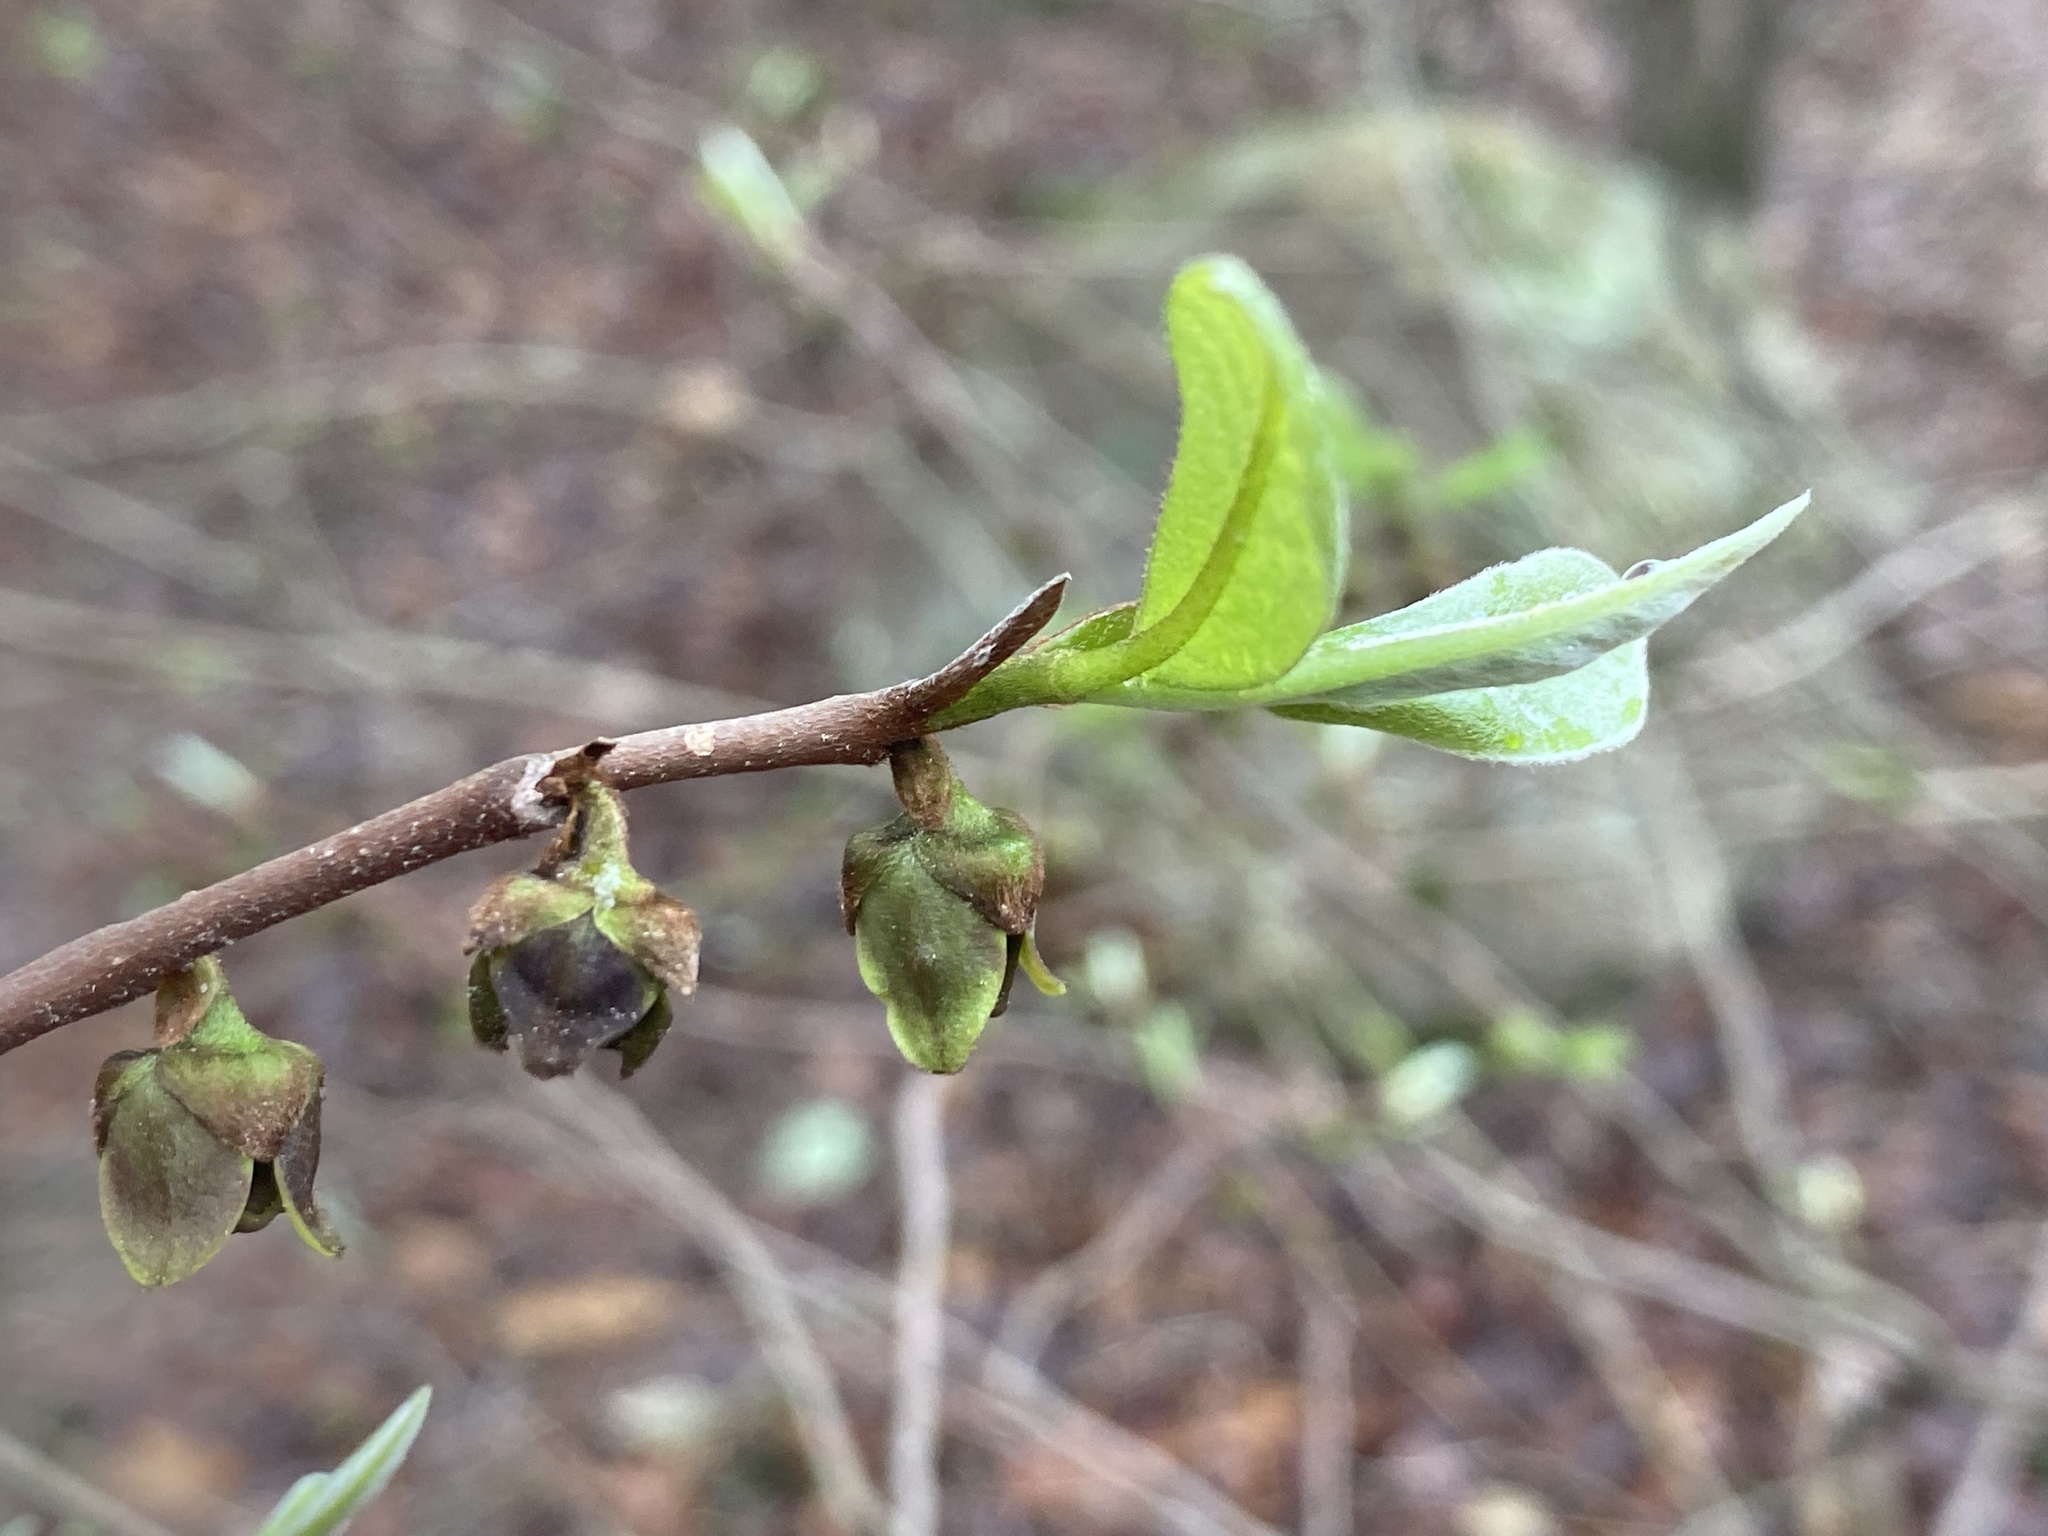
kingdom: Plantae
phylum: Tracheophyta
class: Magnoliopsida
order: Magnoliales
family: Annonaceae
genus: Asimina
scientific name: Asimina parviflora
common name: Dwarf pawpaw
